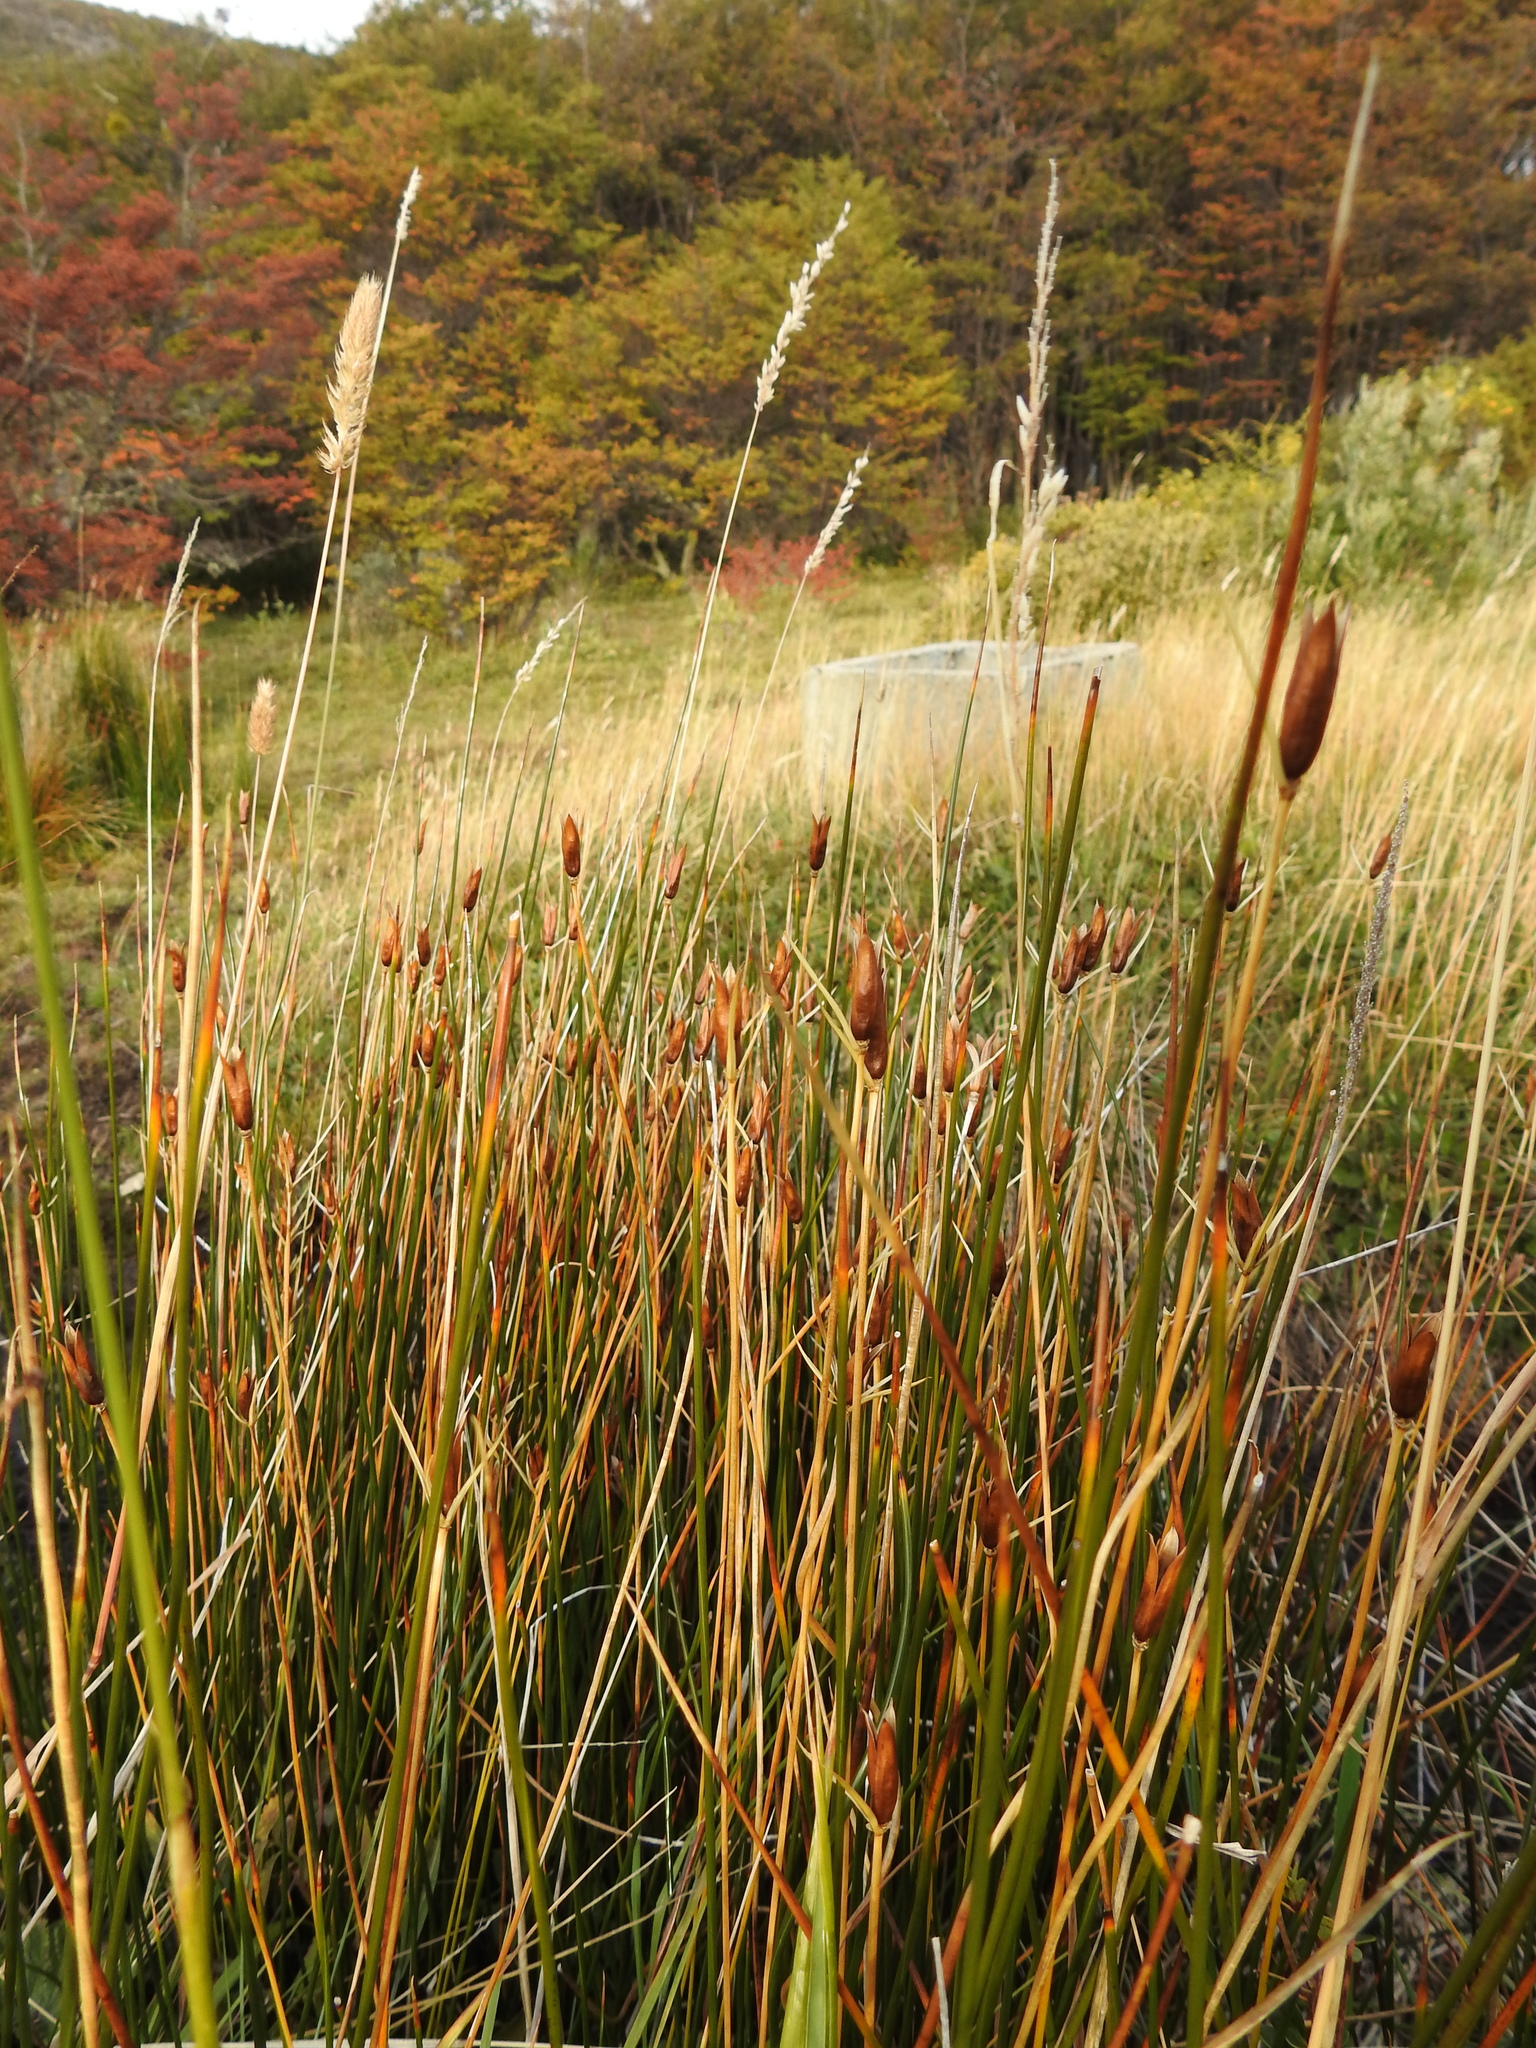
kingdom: Plantae
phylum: Tracheophyta
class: Liliopsida
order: Poales
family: Juncaceae
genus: Marsippospermum
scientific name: Marsippospermum grandiflorum
